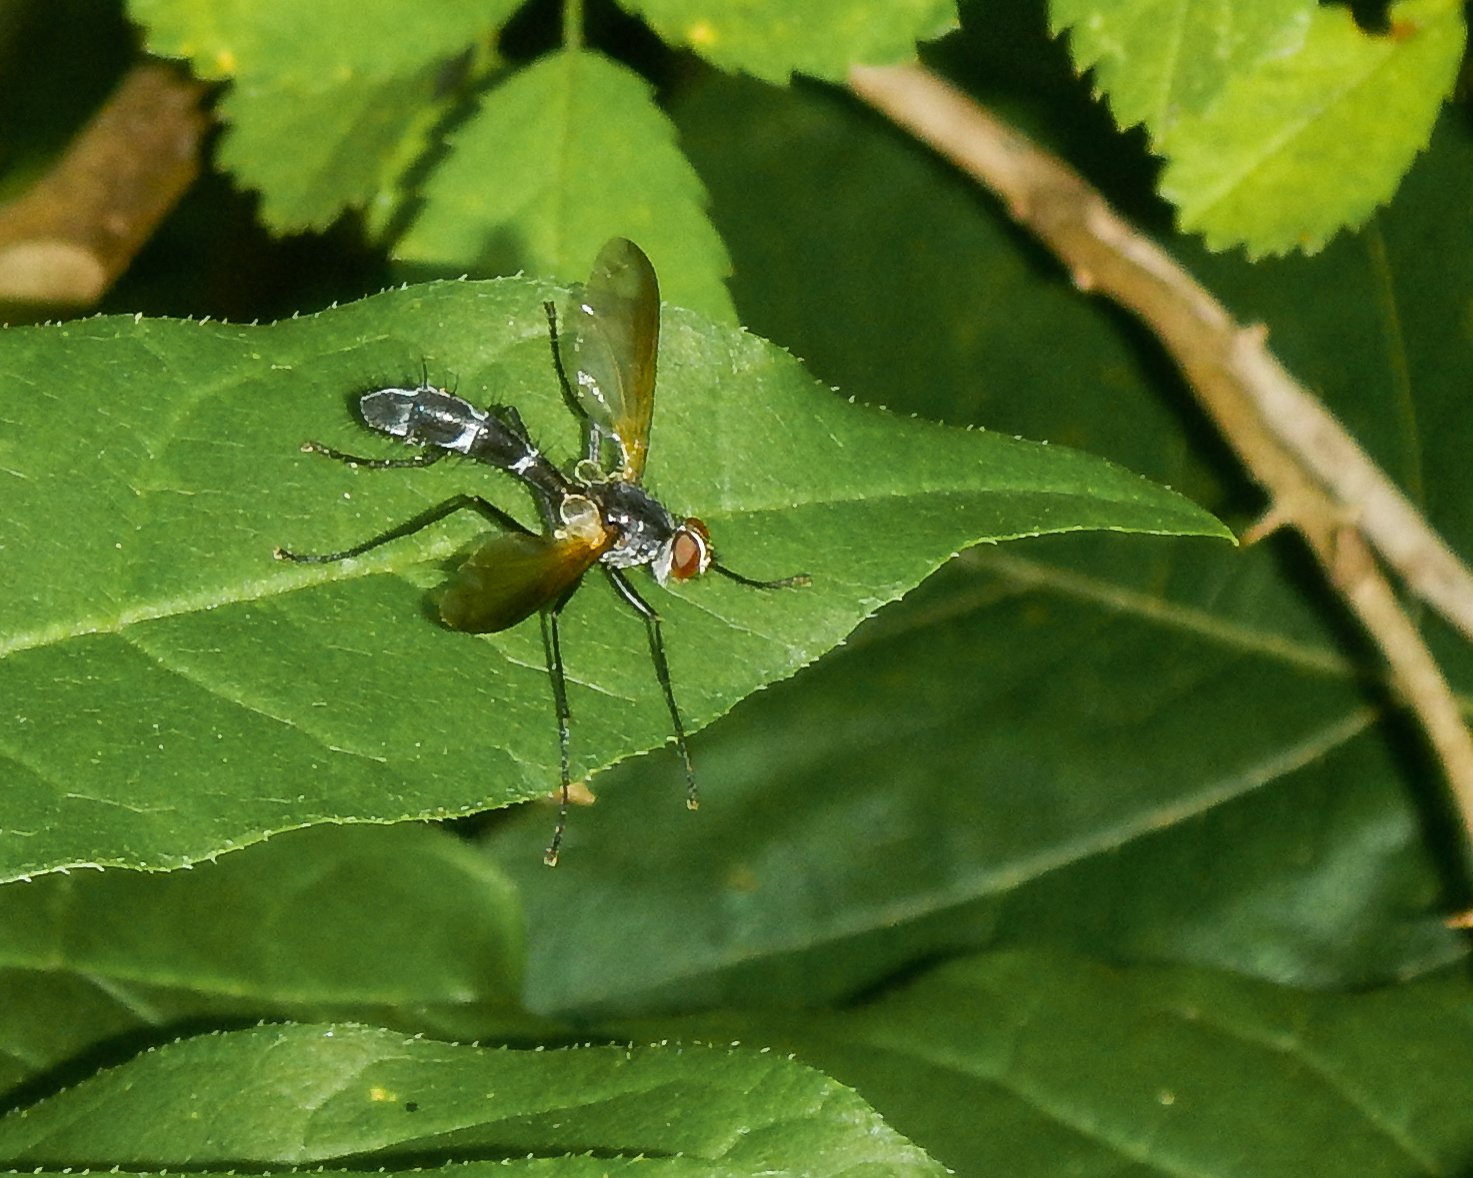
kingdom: Animalia
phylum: Arthropoda
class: Insecta
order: Diptera
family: Tachinidae
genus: Cordyligaster
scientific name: Cordyligaster septentrionalis
